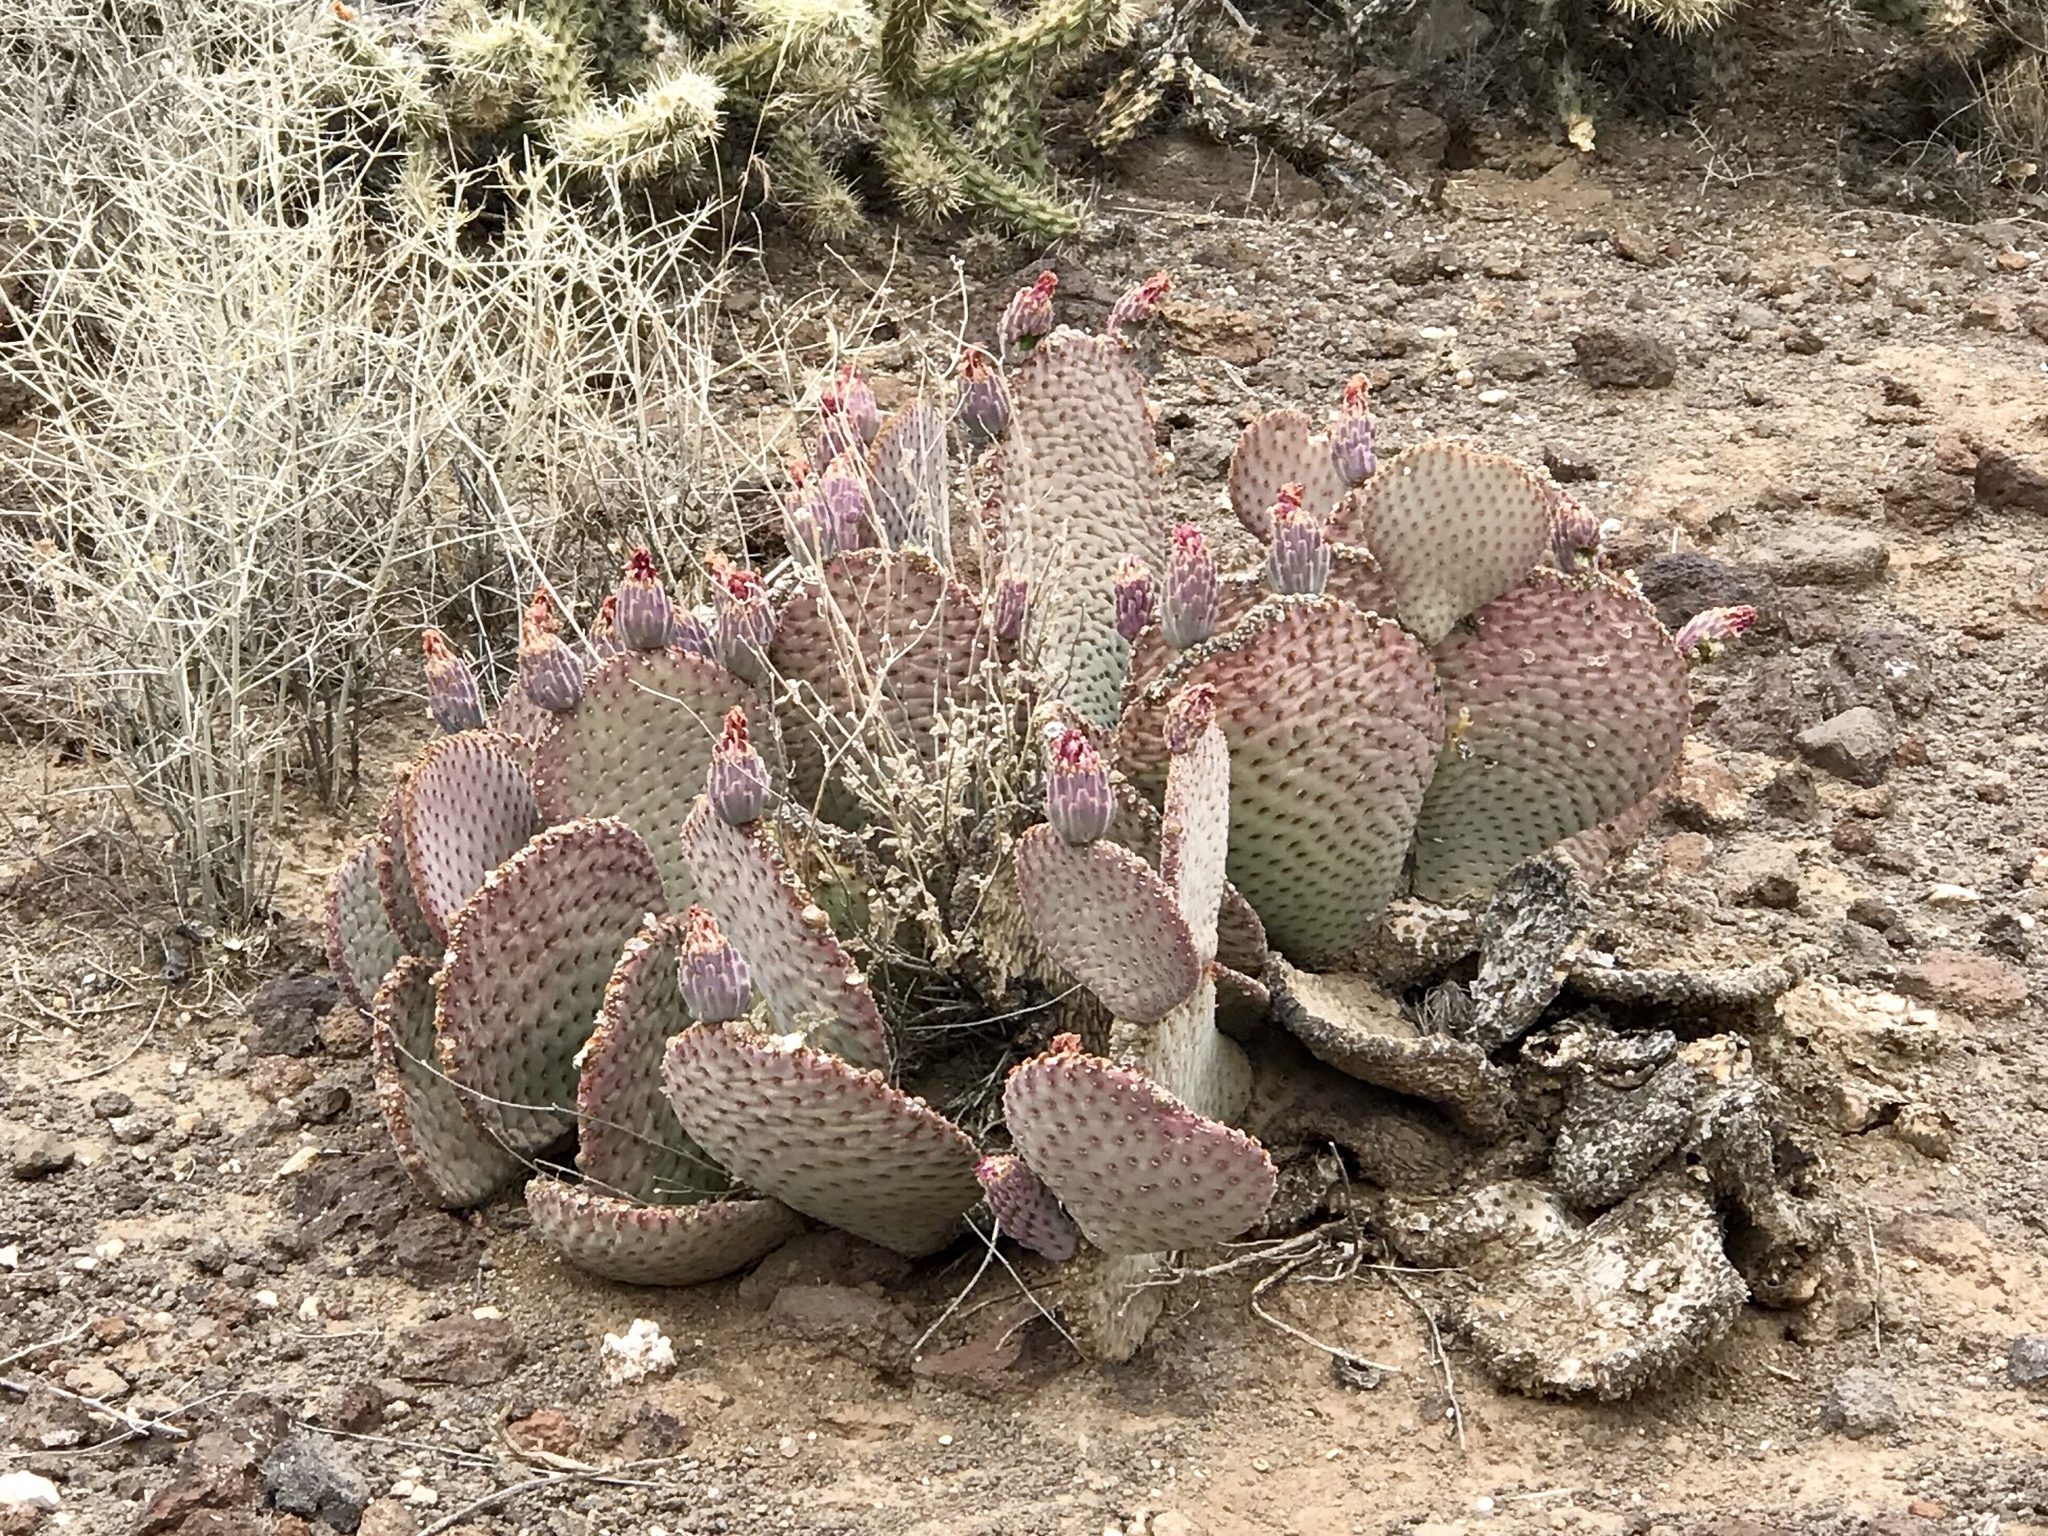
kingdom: Plantae
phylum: Tracheophyta
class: Magnoliopsida
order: Caryophyllales
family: Cactaceae
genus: Opuntia
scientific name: Opuntia basilaris
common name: Beavertail prickly-pear
